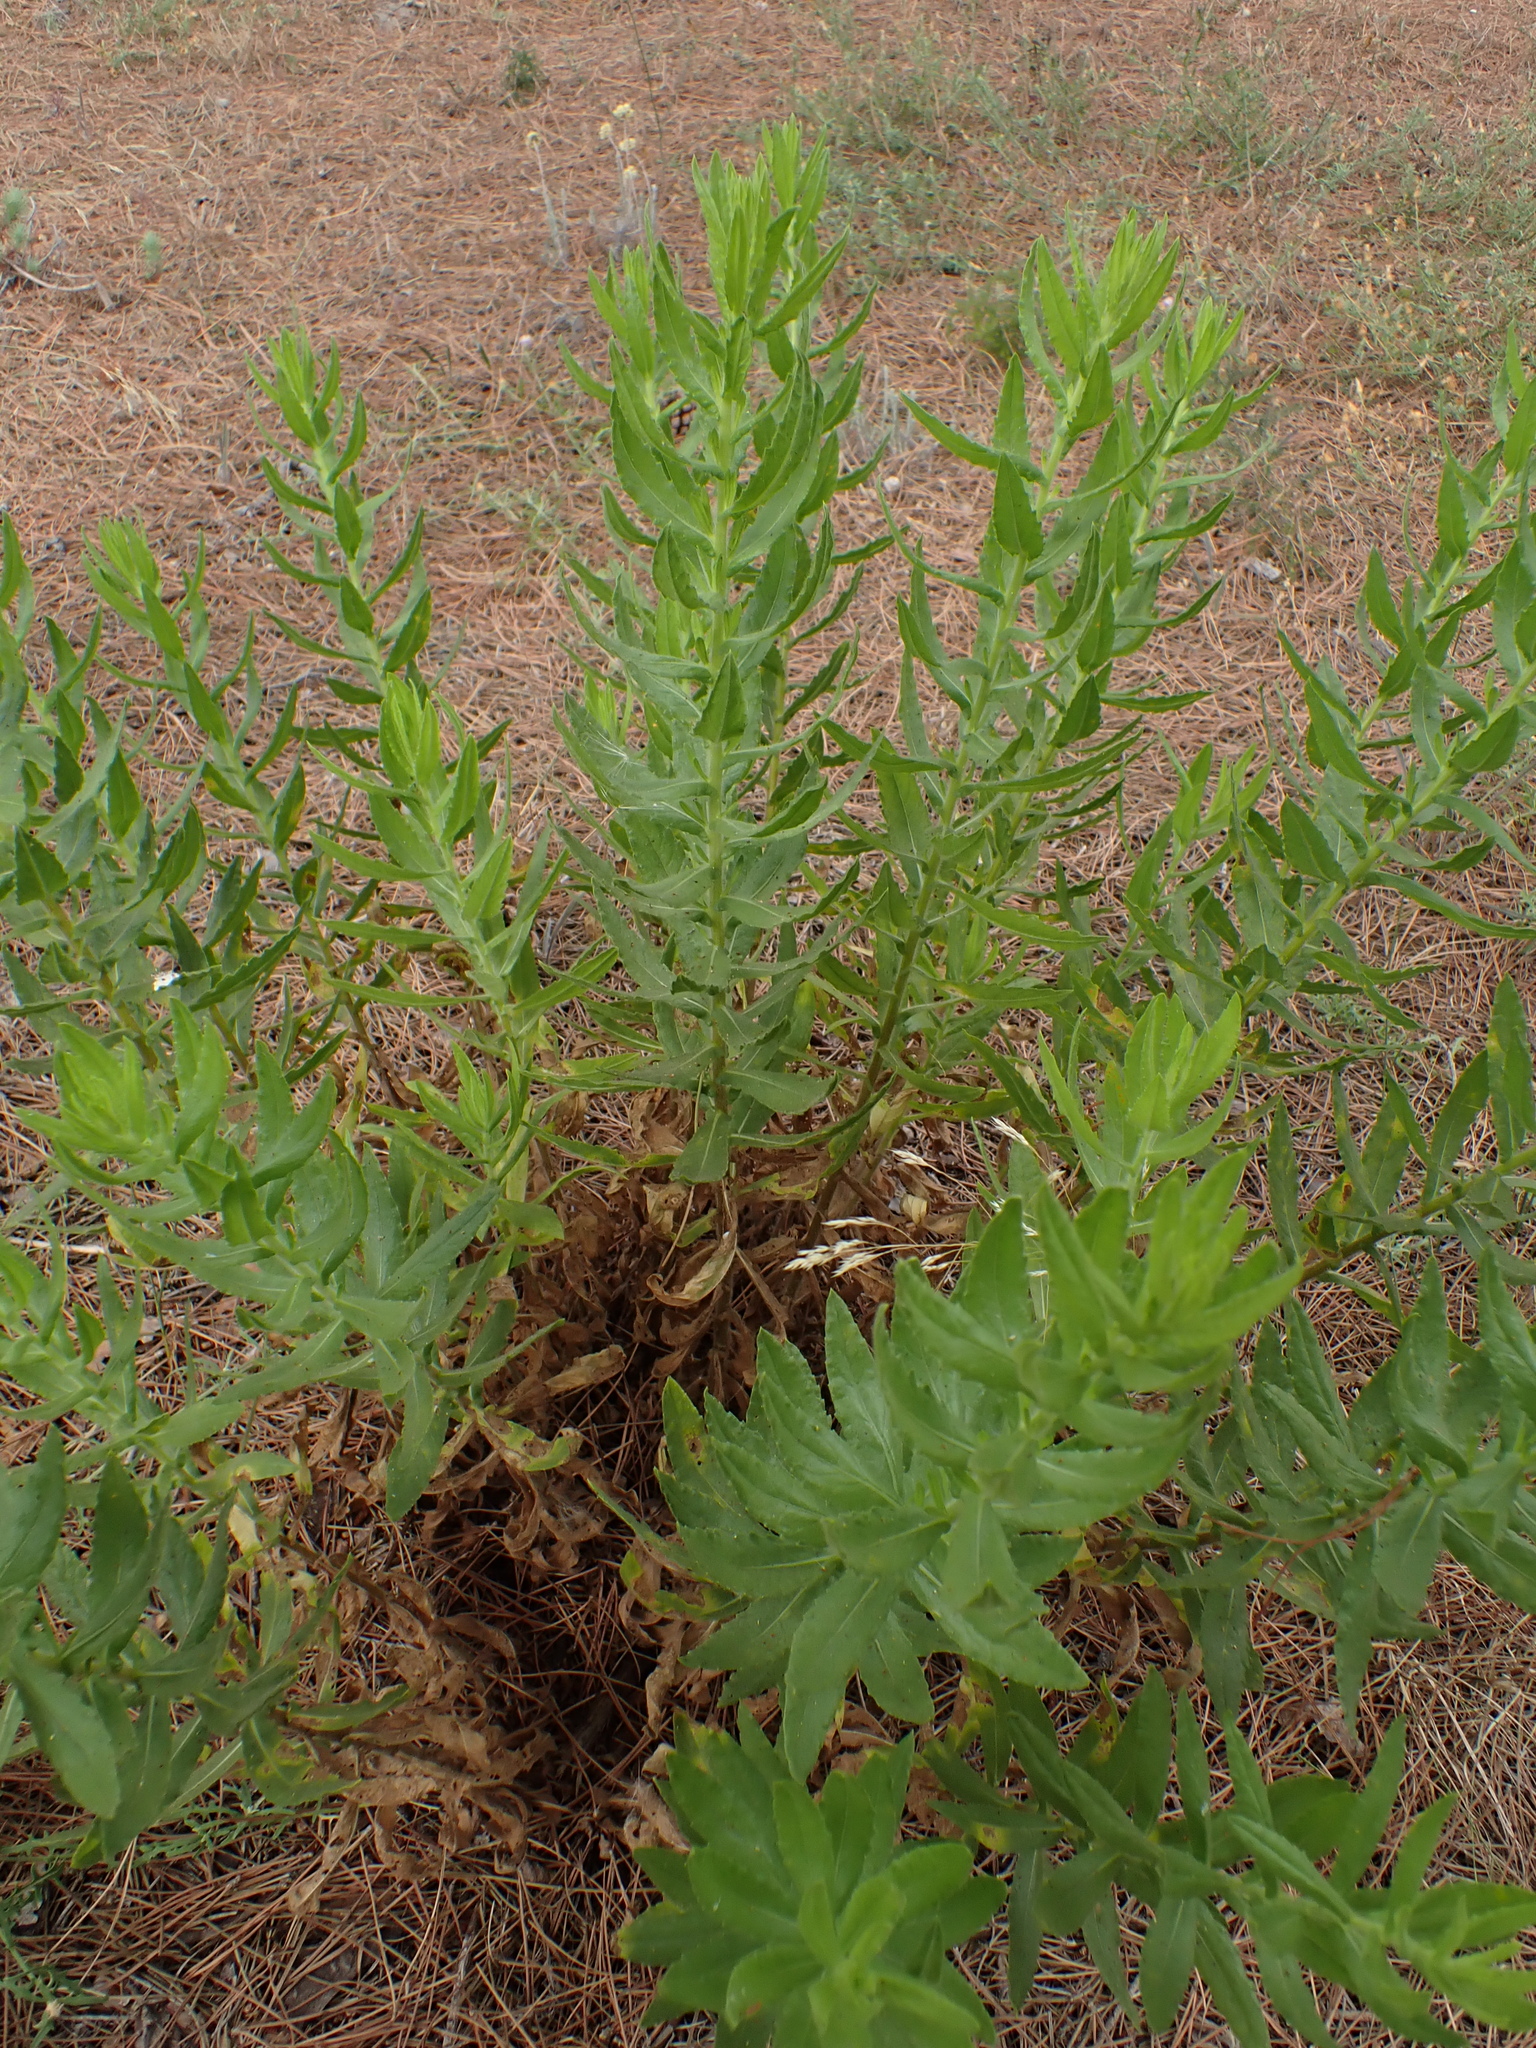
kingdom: Plantae
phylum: Tracheophyta
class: Magnoliopsida
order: Asterales
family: Asteraceae
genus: Dittrichia
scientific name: Dittrichia viscosa
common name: Woody fleabane
